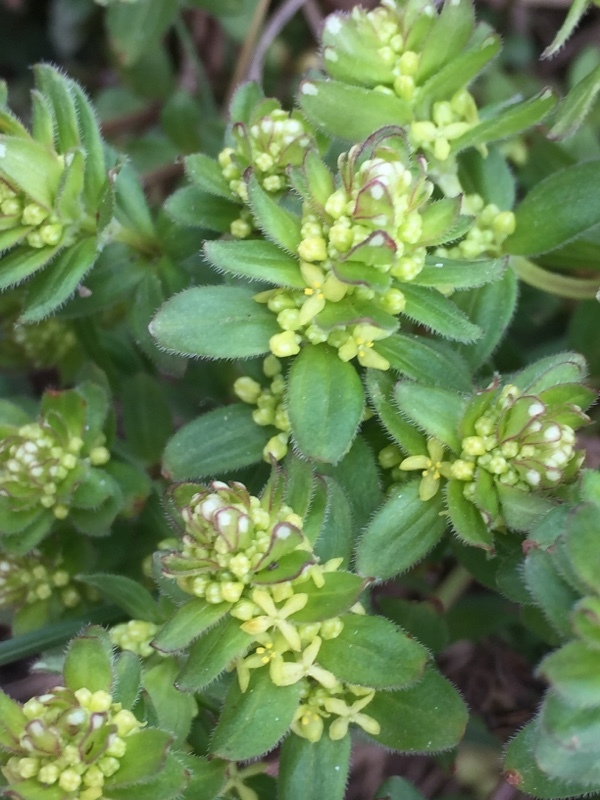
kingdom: Plantae
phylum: Tracheophyta
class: Magnoliopsida
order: Gentianales
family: Rubiaceae
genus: Cruciata
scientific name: Cruciata laevipes
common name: Crosswort
